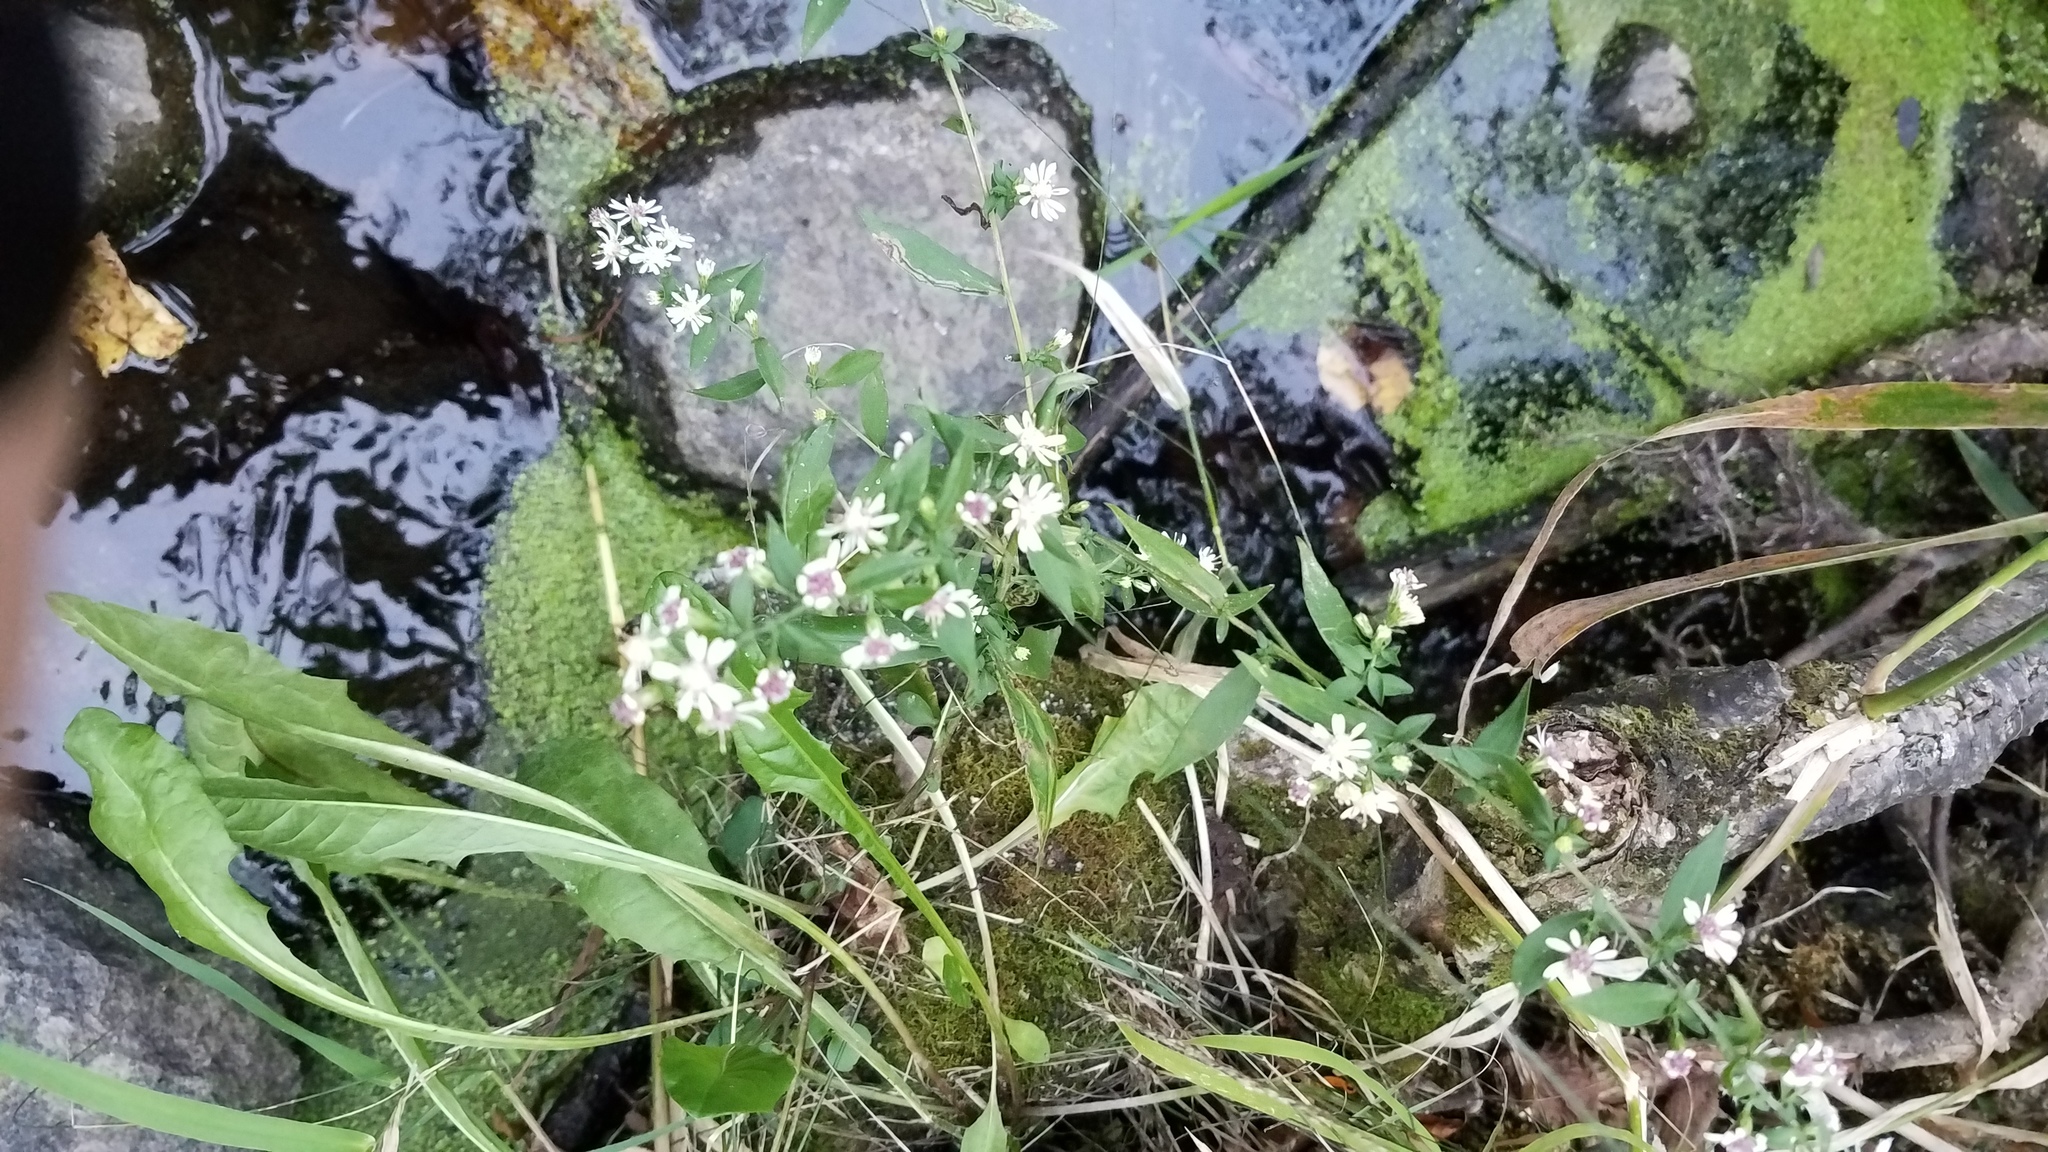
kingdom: Plantae
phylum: Tracheophyta
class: Magnoliopsida
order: Asterales
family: Asteraceae
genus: Symphyotrichum
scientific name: Symphyotrichum lateriflorum
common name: Calico aster
